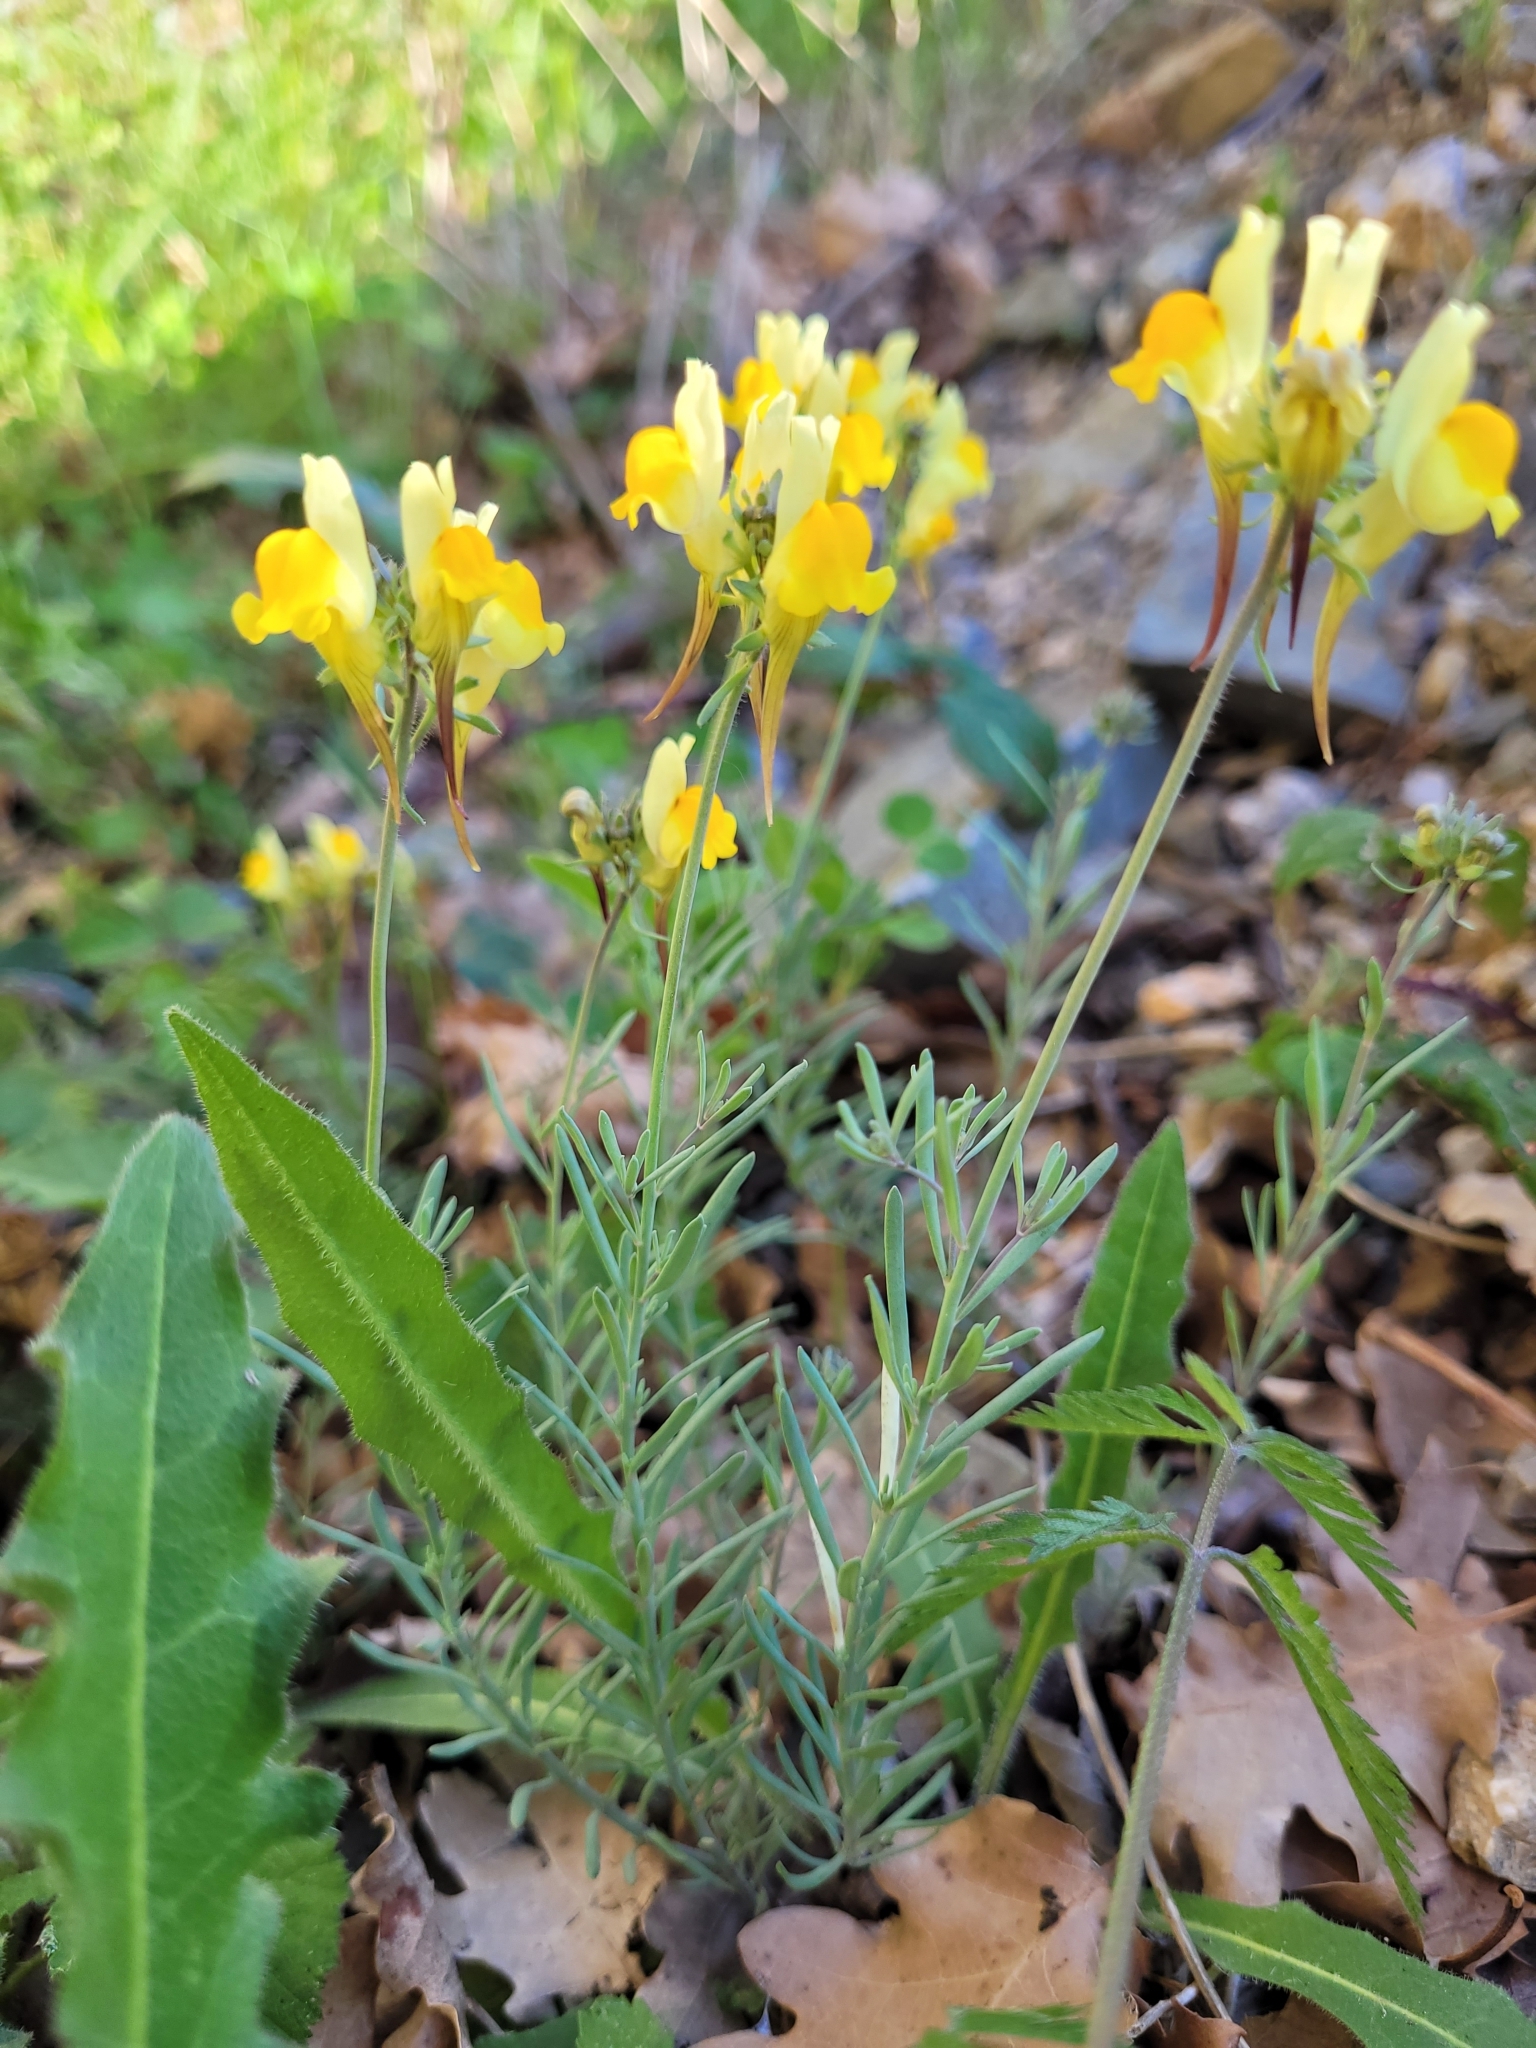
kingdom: Plantae
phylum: Tracheophyta
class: Magnoliopsida
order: Lamiales
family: Plantaginaceae
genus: Linaria
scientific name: Linaria supina
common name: Prostrate toadflax
